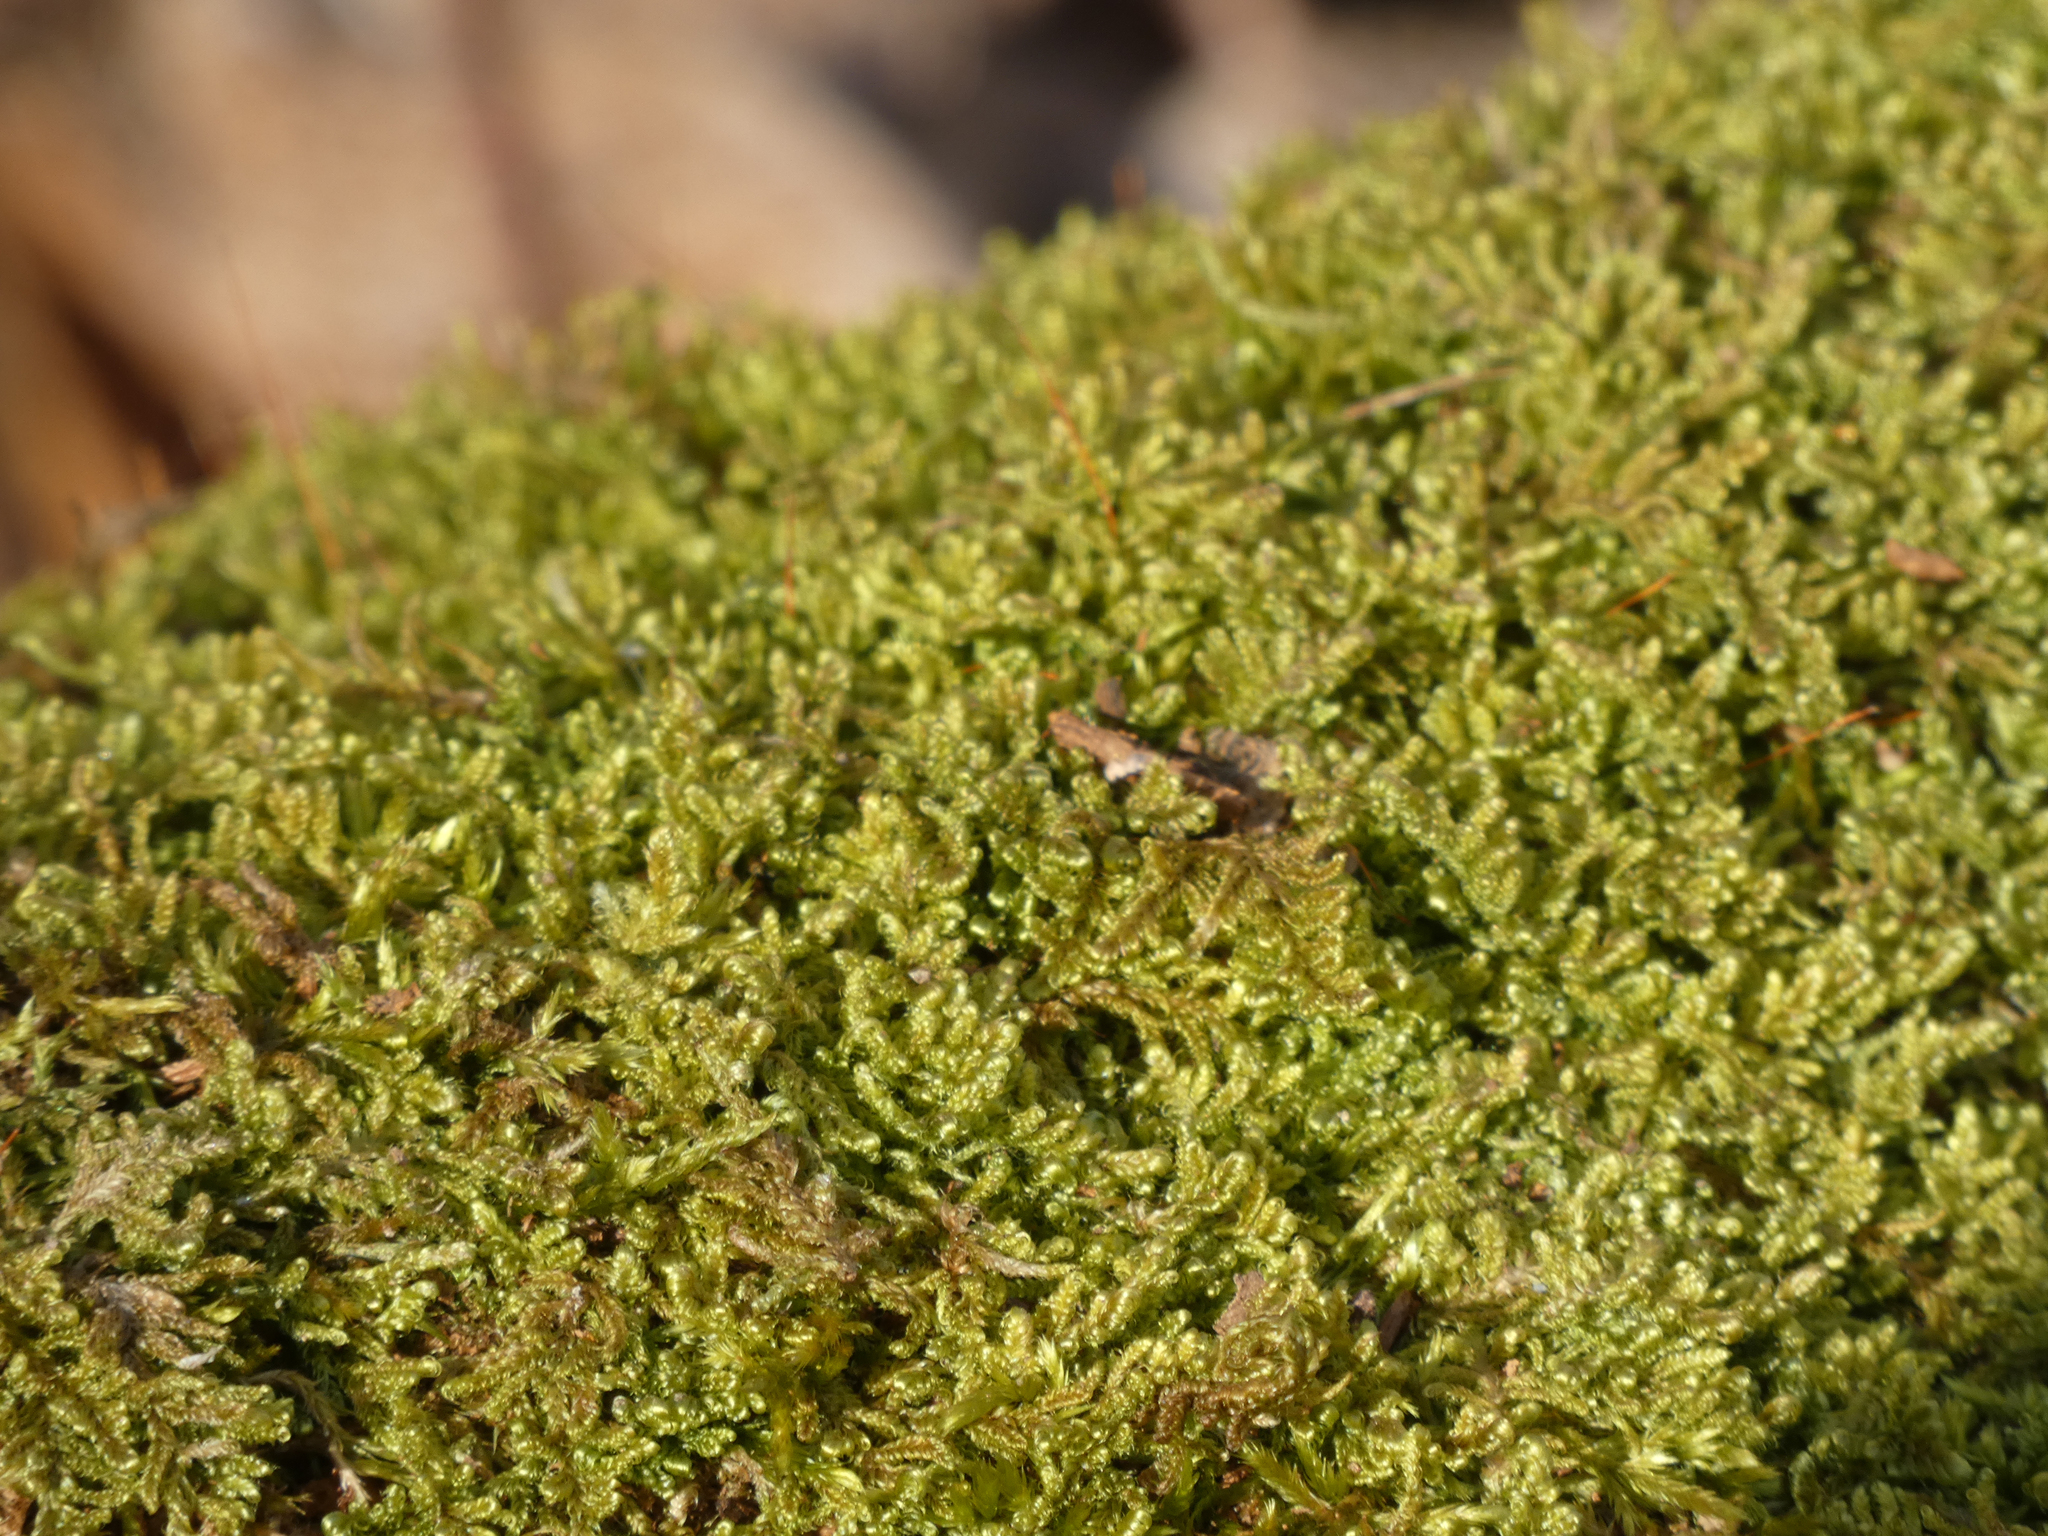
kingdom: Plantae
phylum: Bryophyta
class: Bryopsida
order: Hypnales
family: Callicladiaceae
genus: Callicladium
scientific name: Callicladium imponens
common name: Brocade moss
